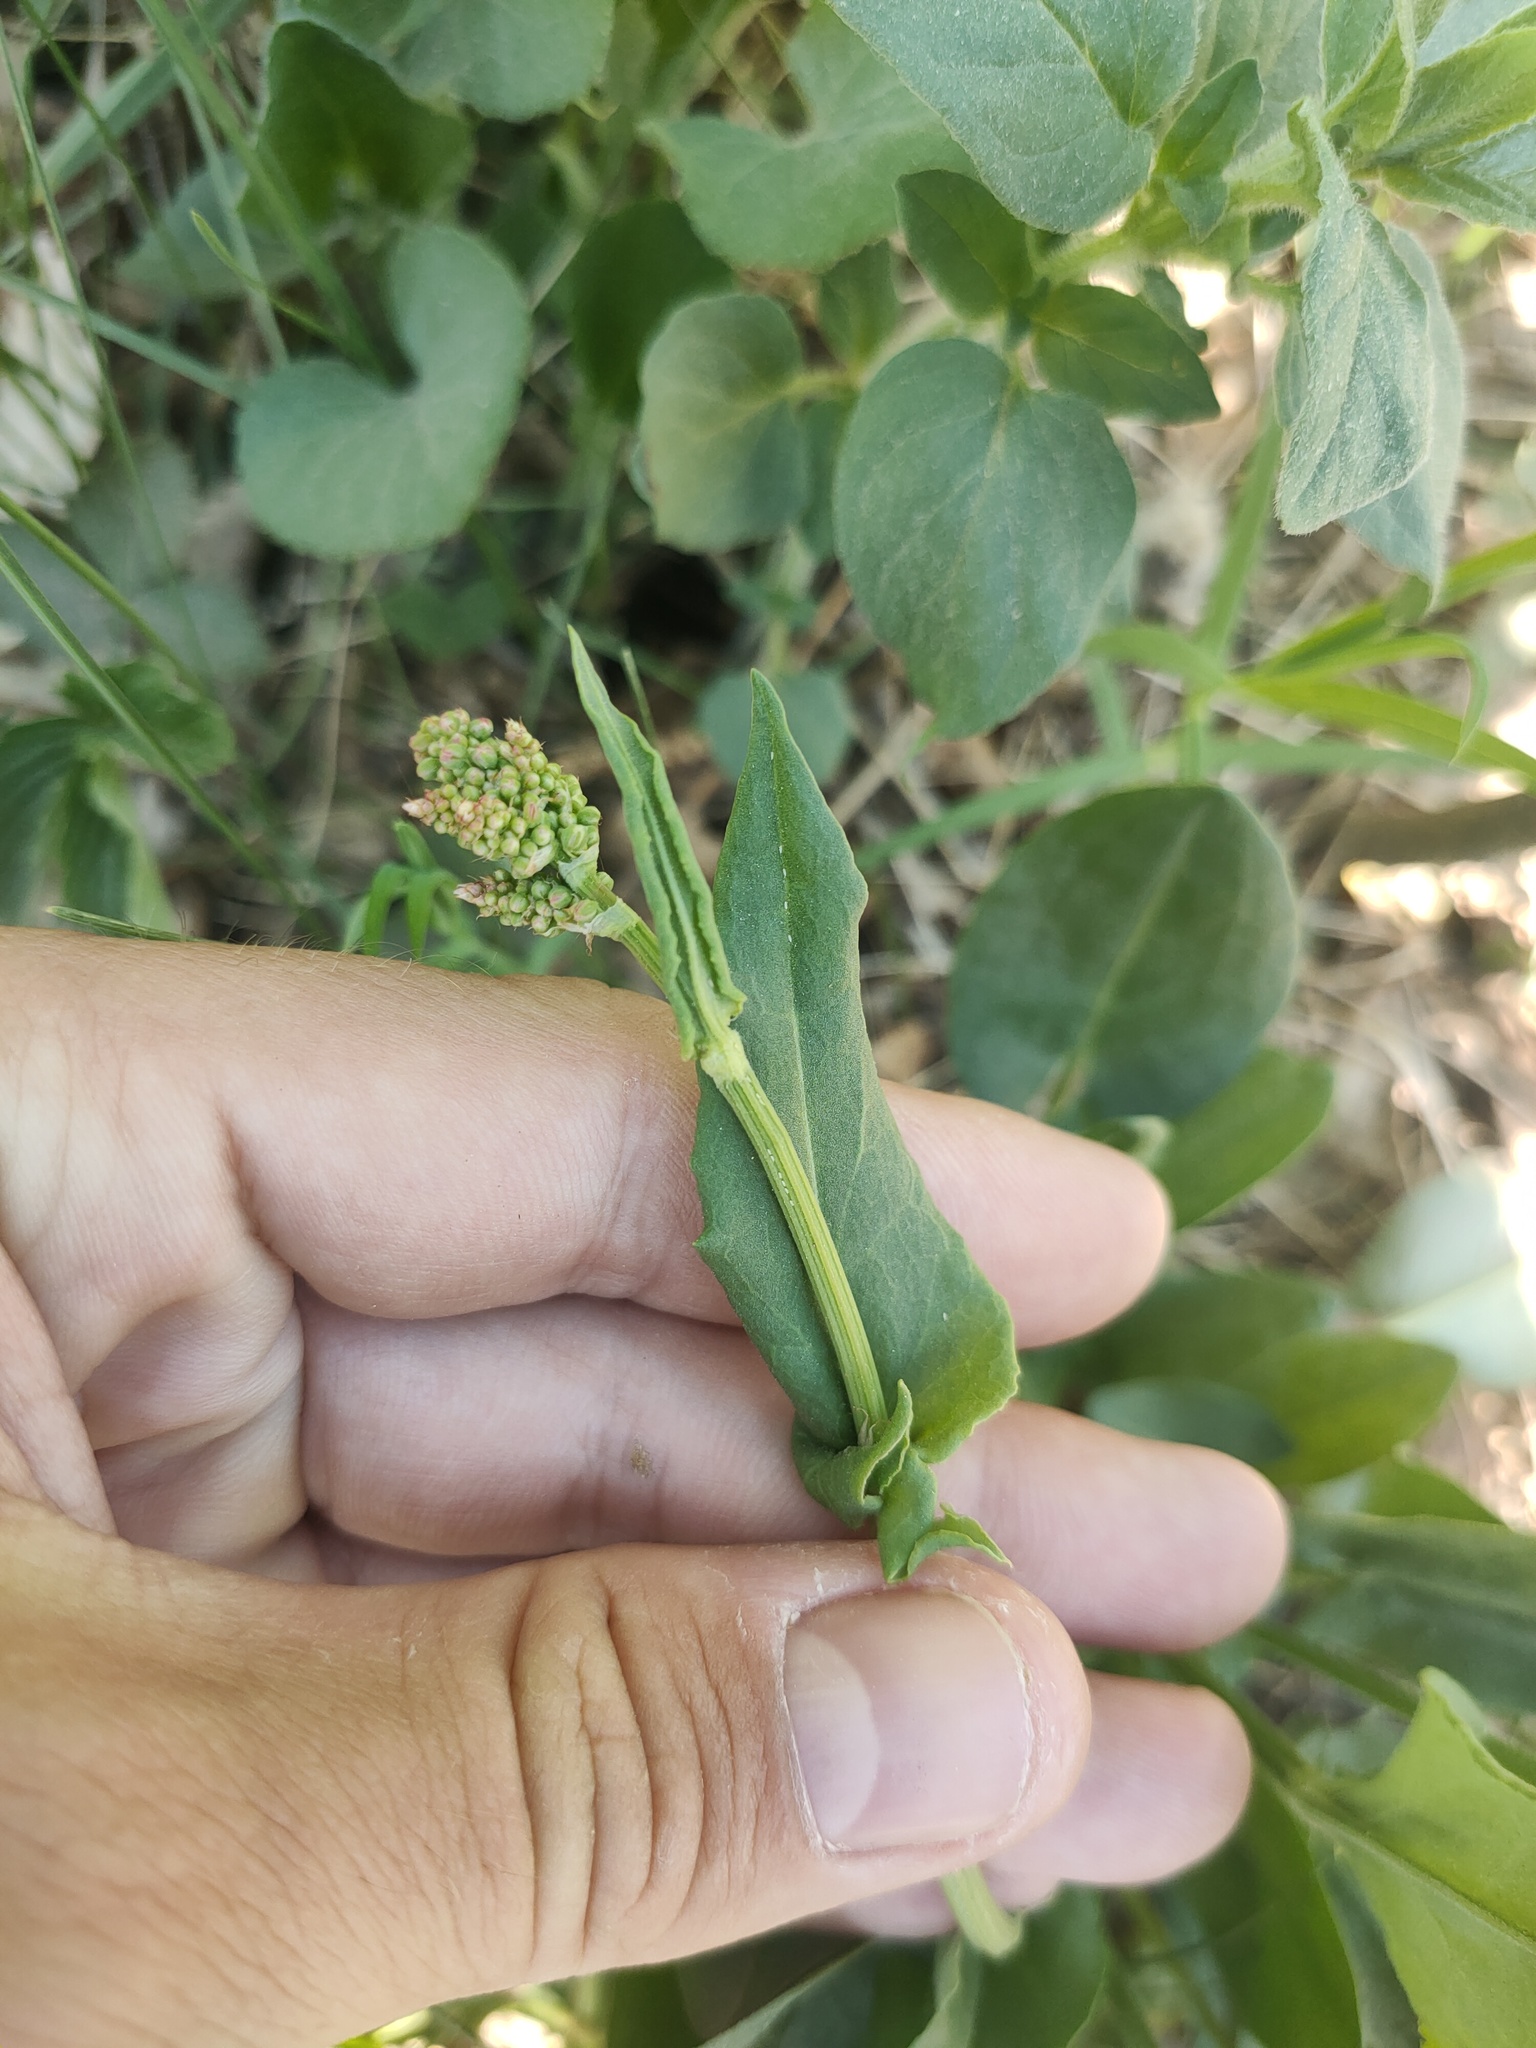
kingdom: Plantae
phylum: Tracheophyta
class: Magnoliopsida
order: Caryophyllales
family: Polygonaceae
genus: Rumex
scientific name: Rumex acetosa
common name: Garden sorrel
